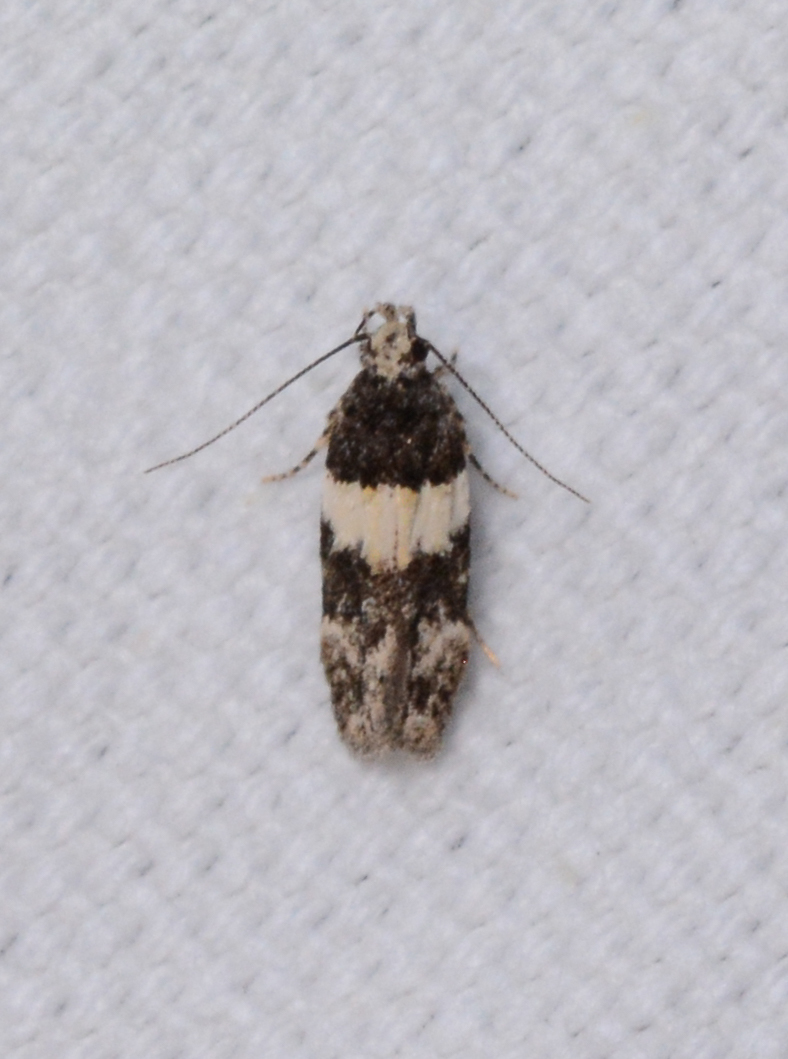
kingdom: Animalia
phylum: Arthropoda
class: Insecta
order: Lepidoptera
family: Gelechiidae
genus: Pubitelphusa
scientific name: Pubitelphusa latifasciella
